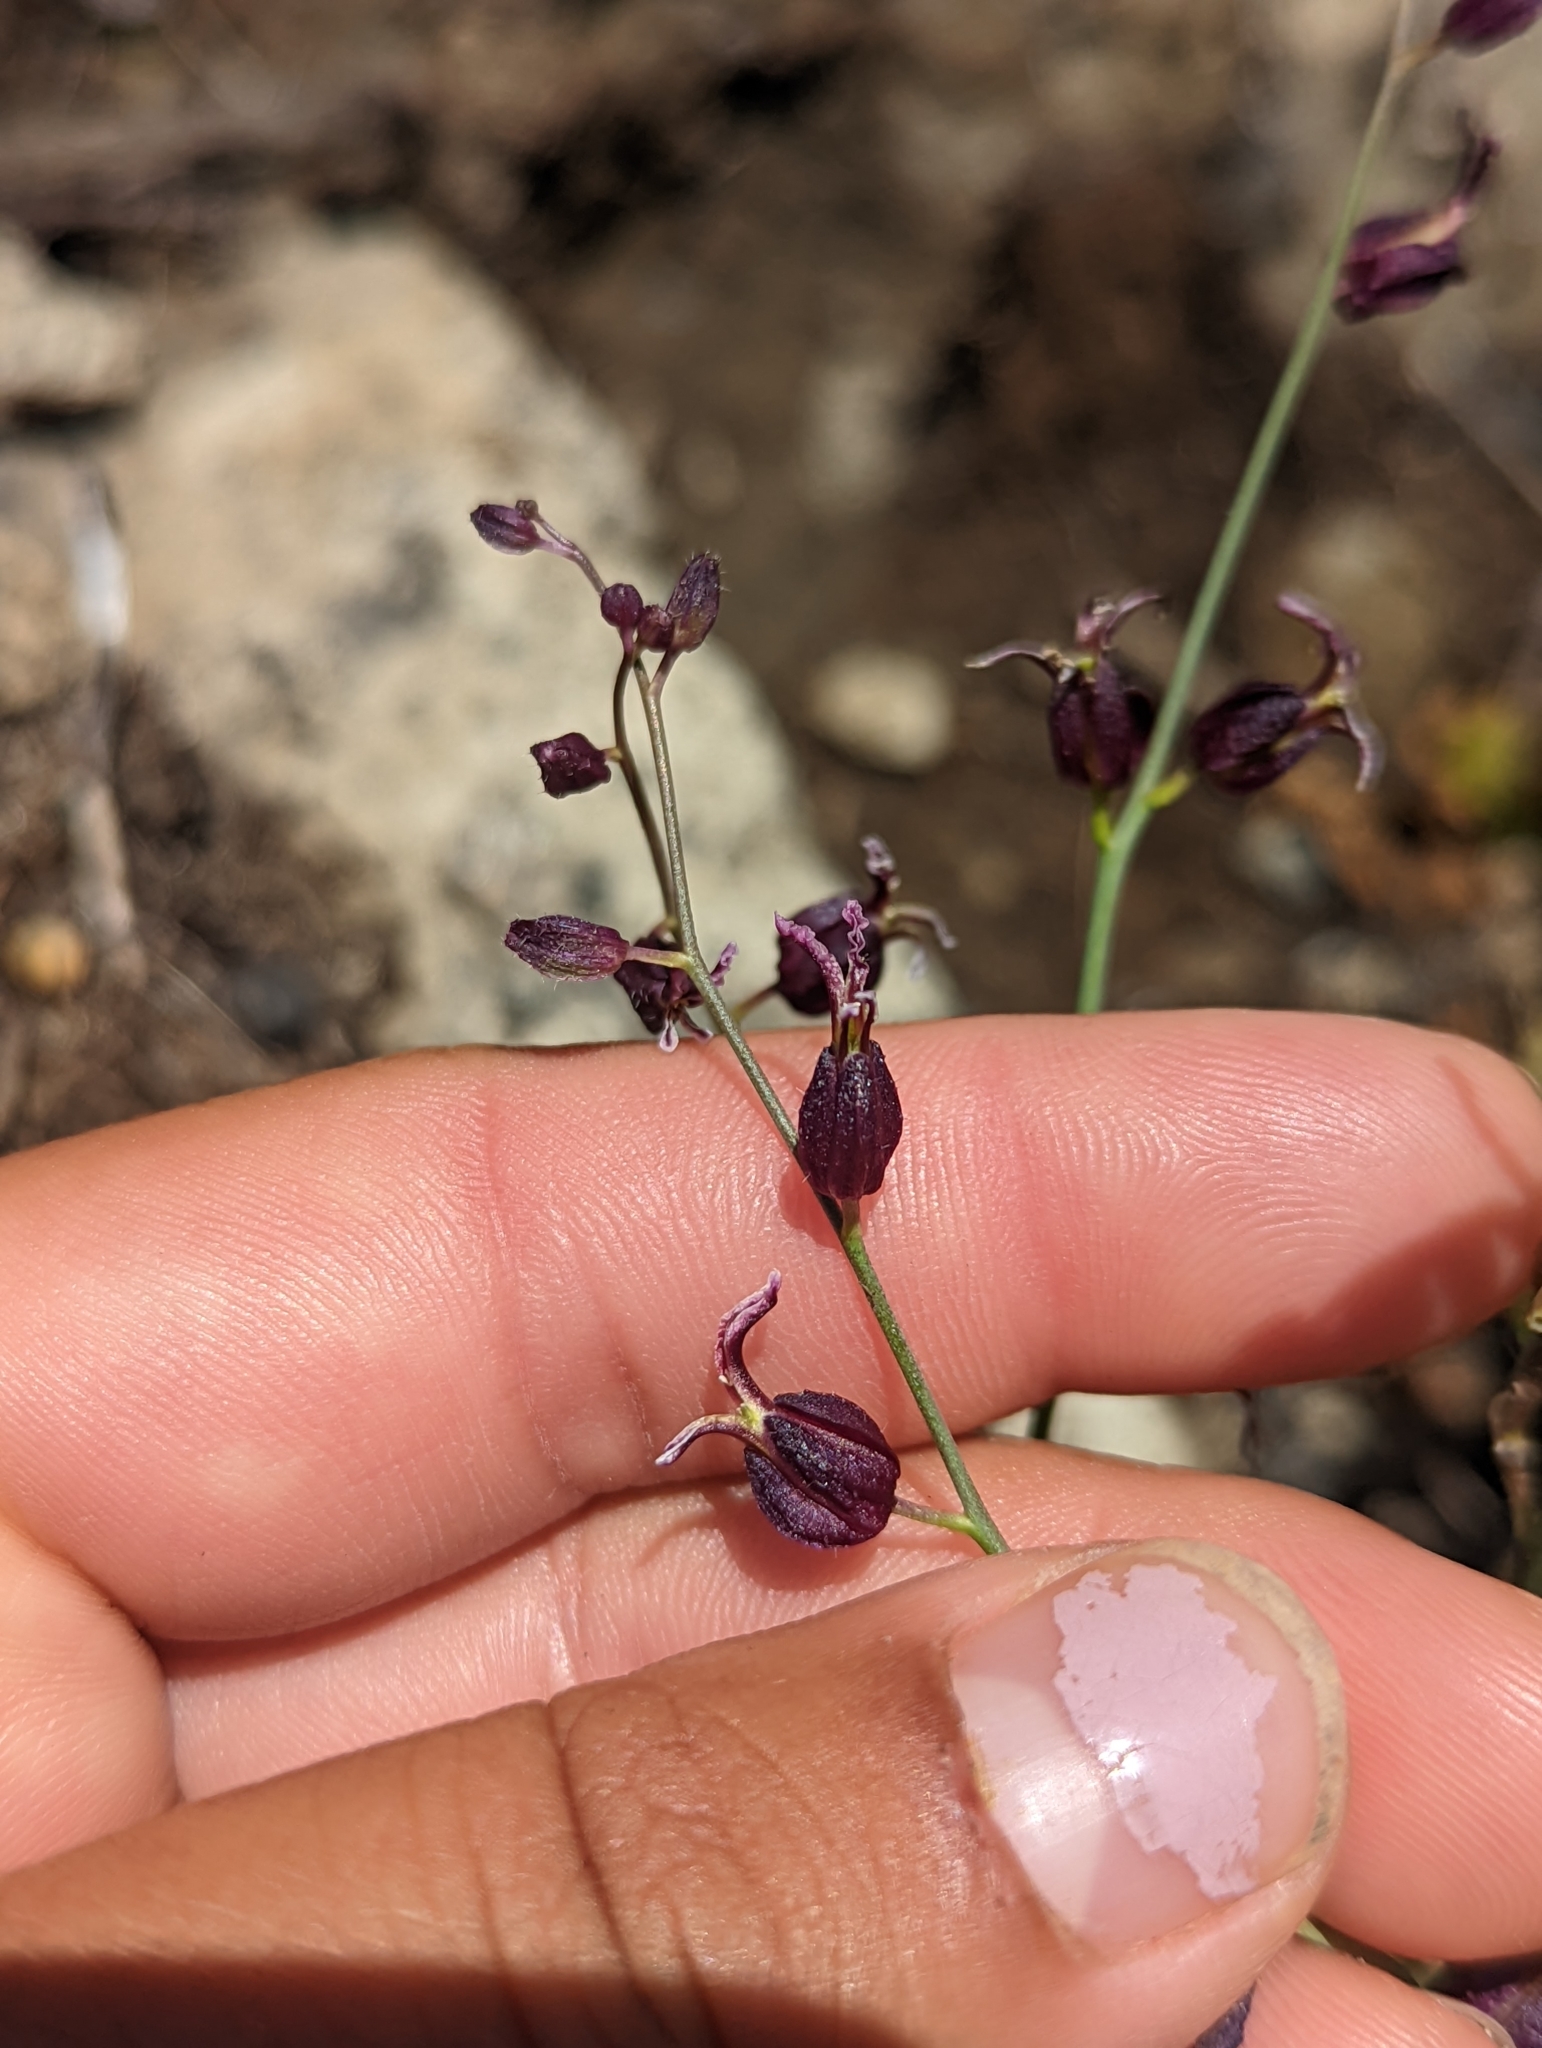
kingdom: Plantae
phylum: Tracheophyta
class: Magnoliopsida
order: Brassicales
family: Brassicaceae
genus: Streptanthus
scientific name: Streptanthus glandulosus
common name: Jewel-flower
